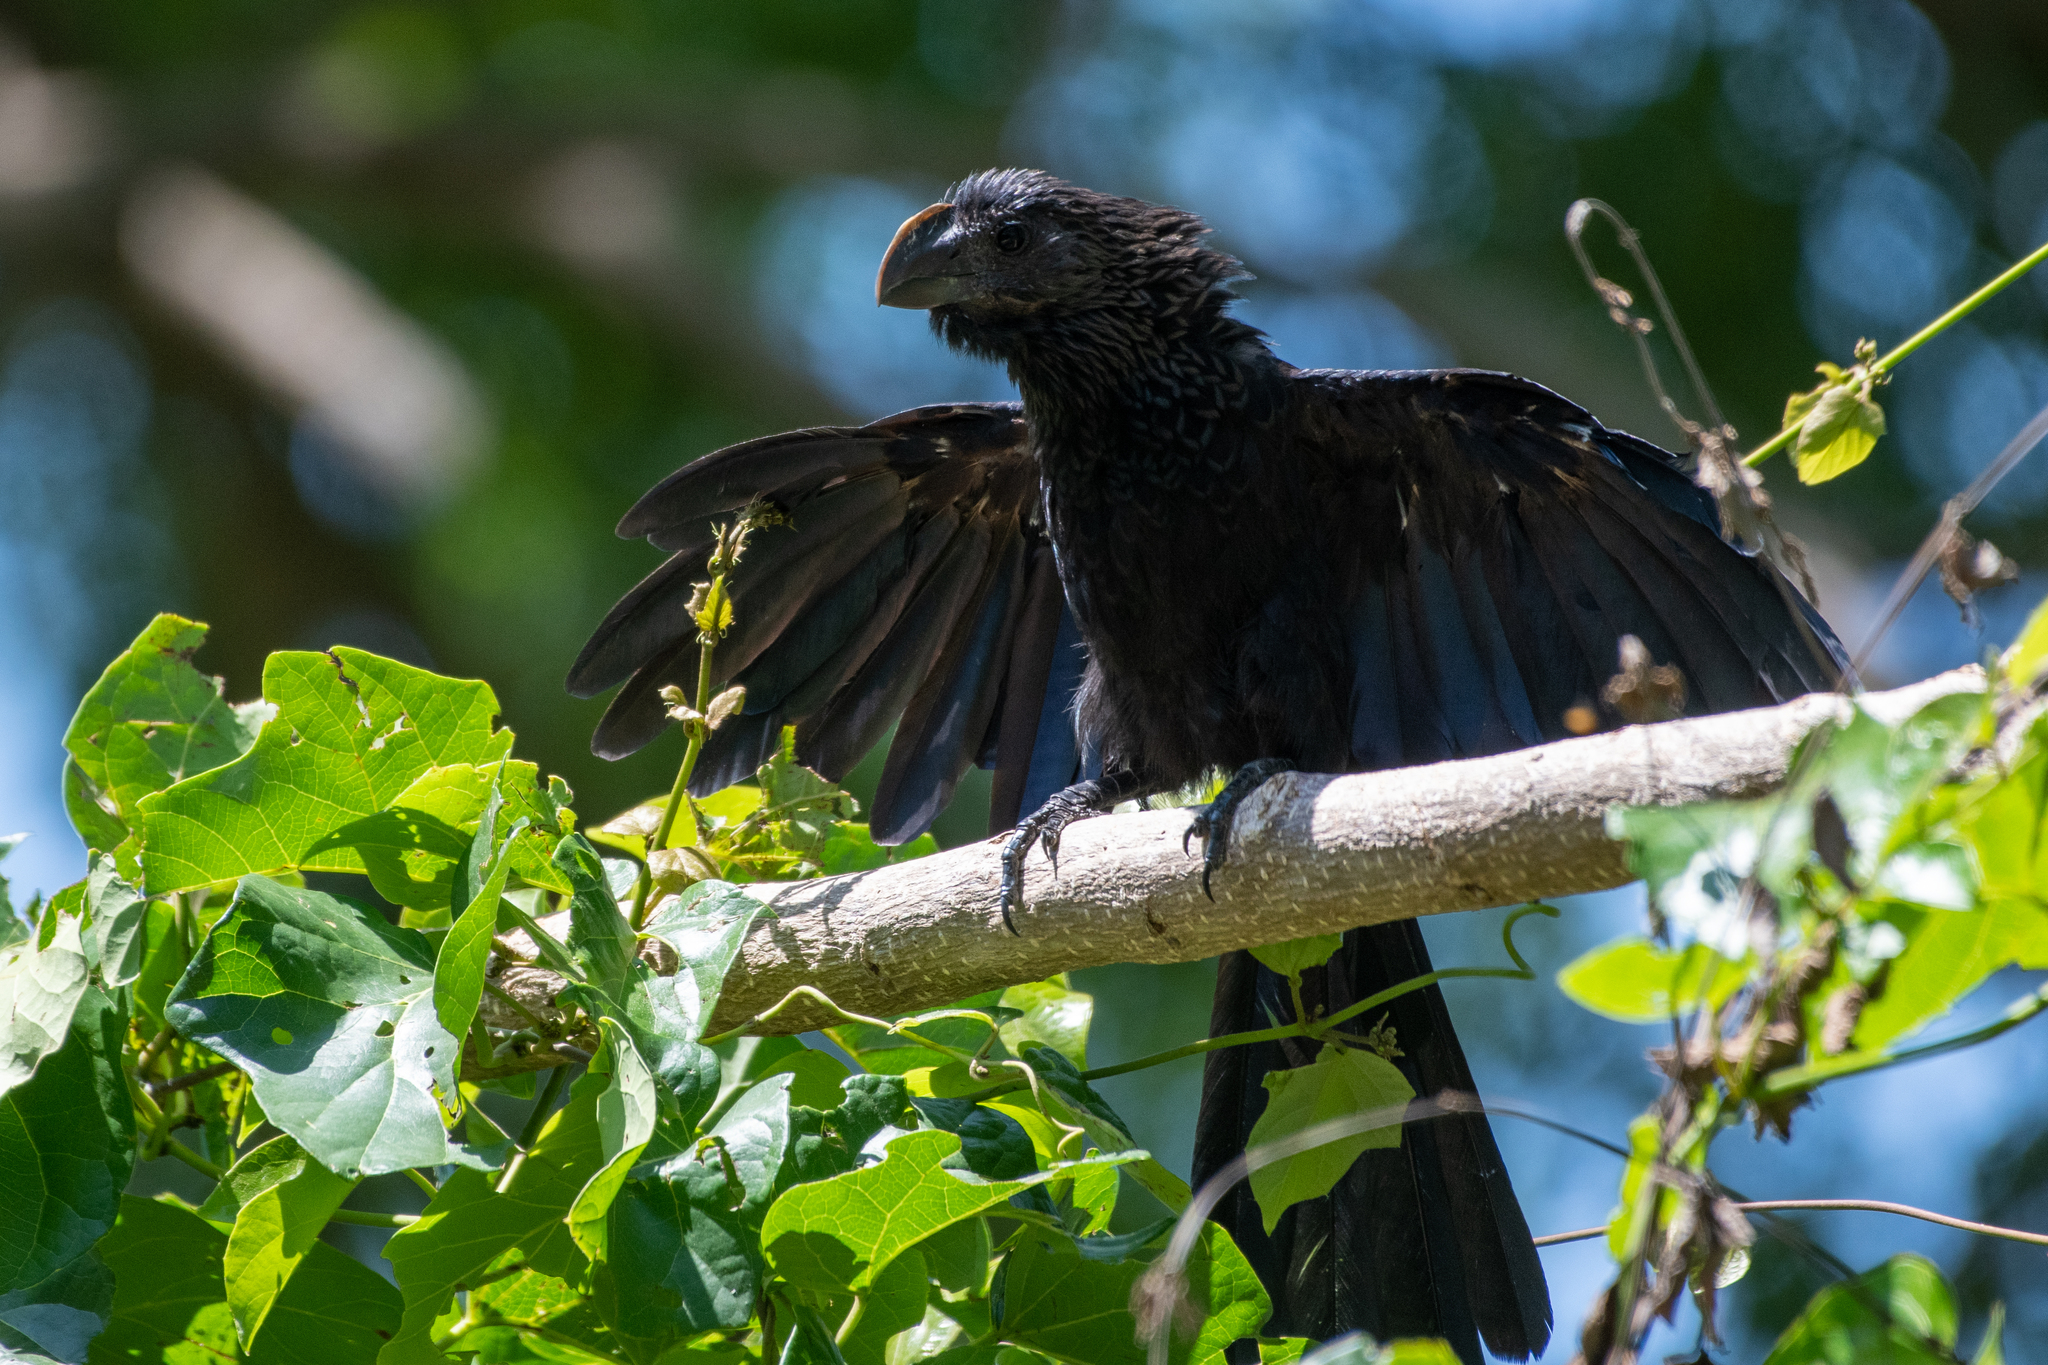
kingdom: Animalia
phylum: Chordata
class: Aves
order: Cuculiformes
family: Cuculidae
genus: Crotophaga
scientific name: Crotophaga ani
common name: Smooth-billed ani
